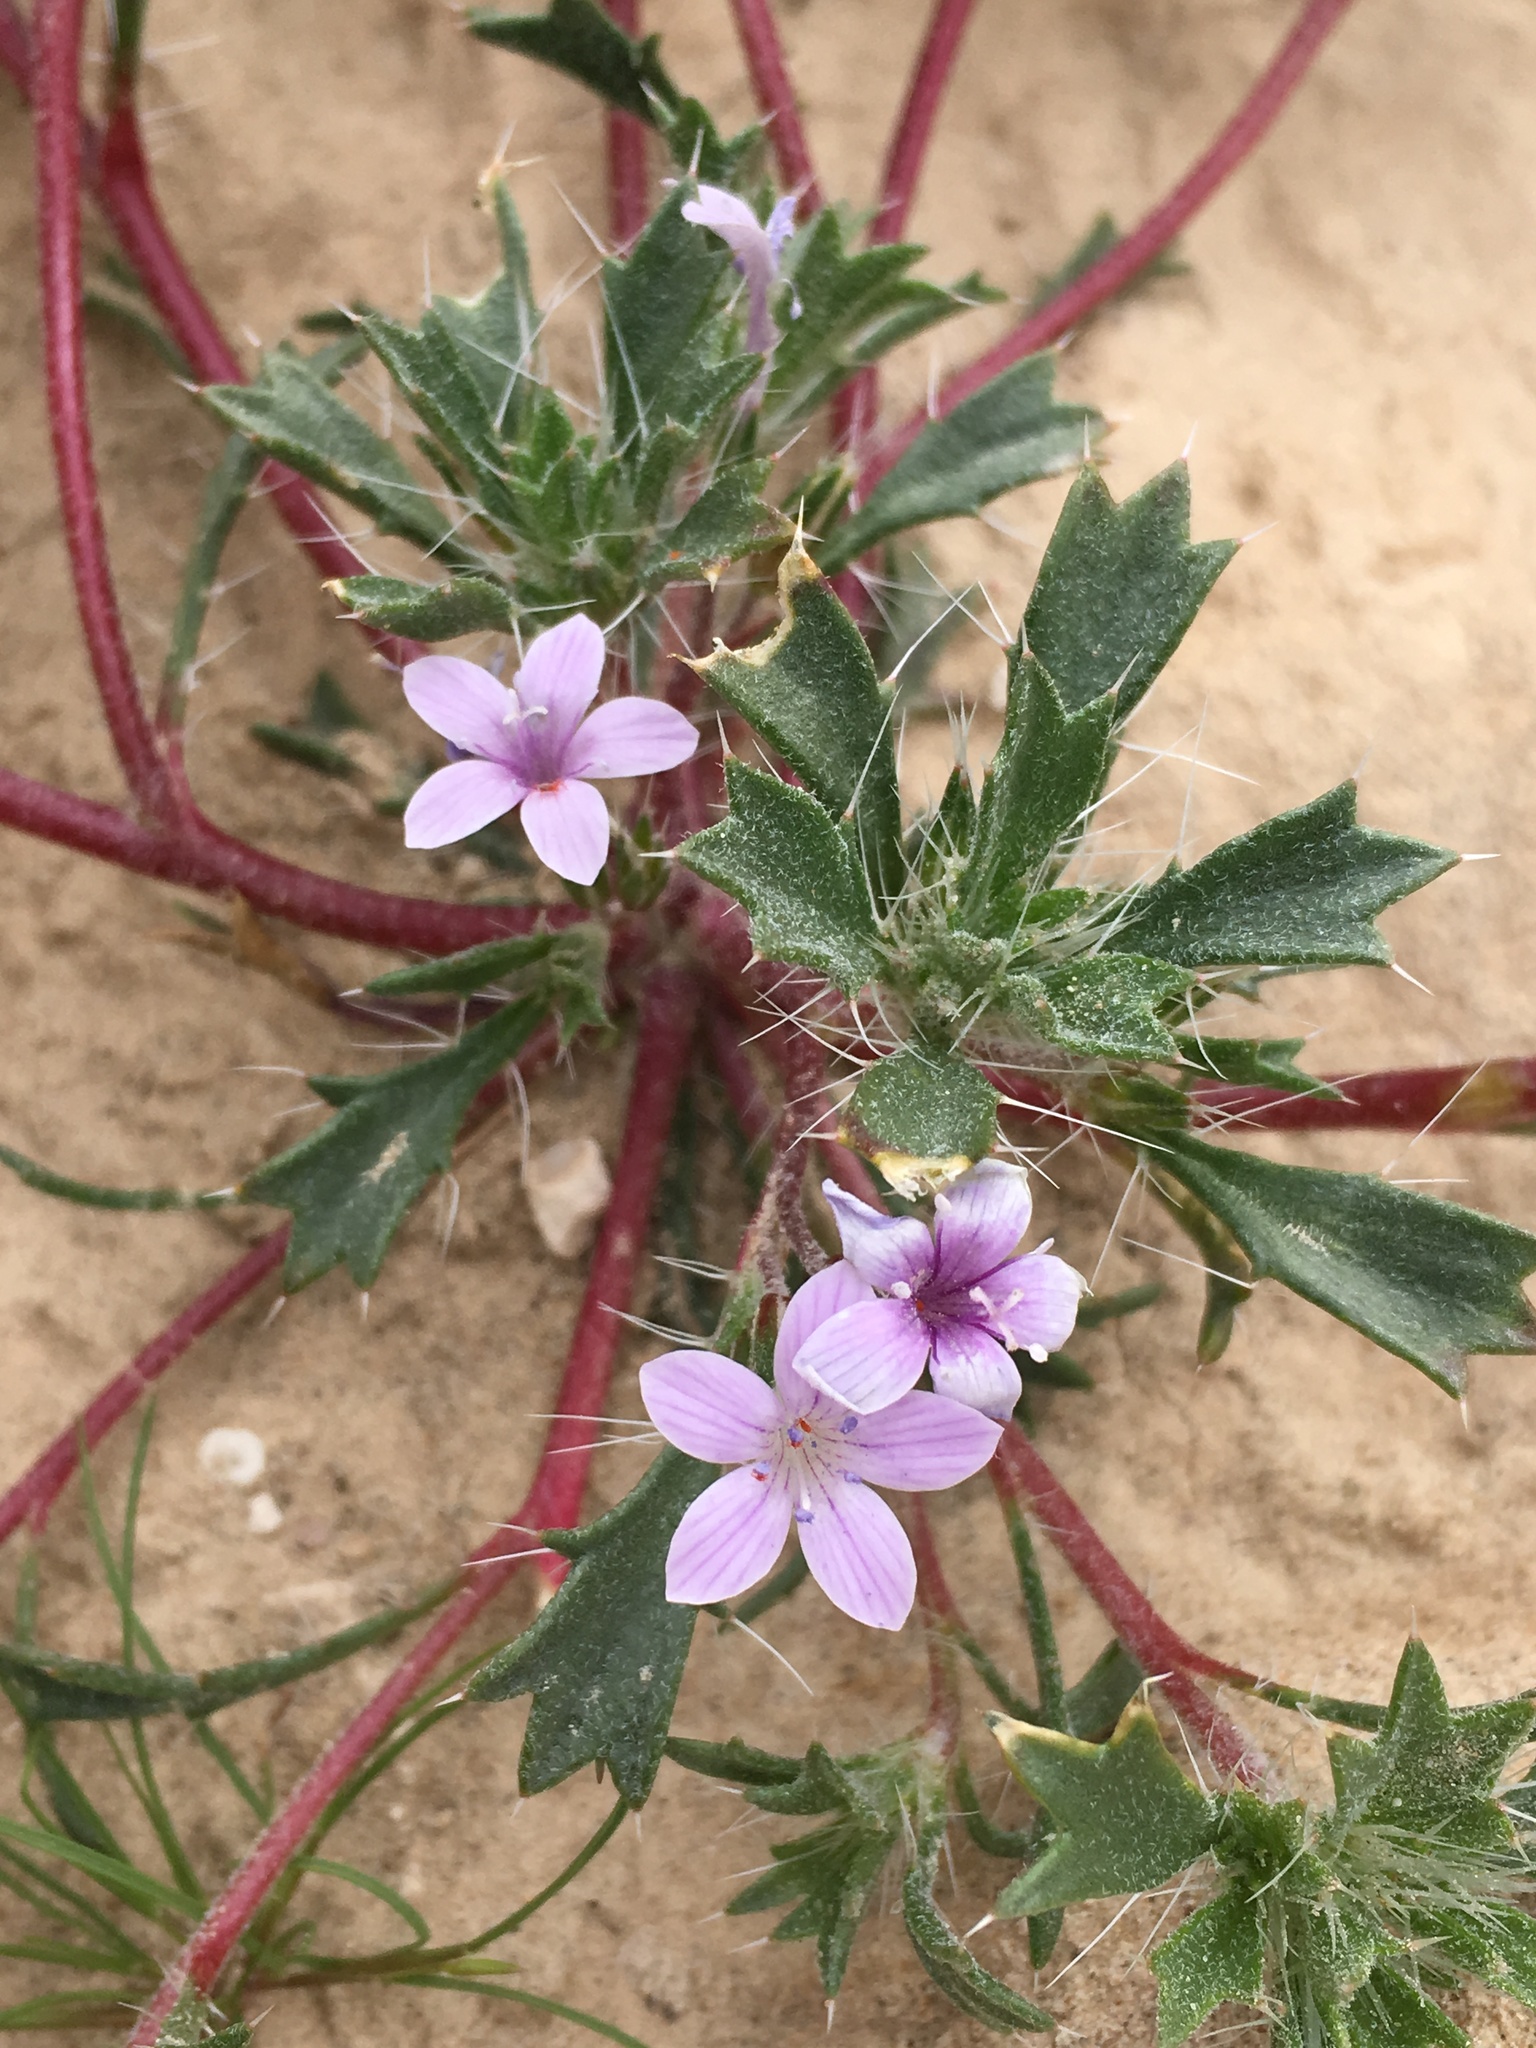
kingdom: Plantae
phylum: Tracheophyta
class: Magnoliopsida
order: Ericales
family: Polemoniaceae
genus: Langloisia
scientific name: Langloisia setosissima
